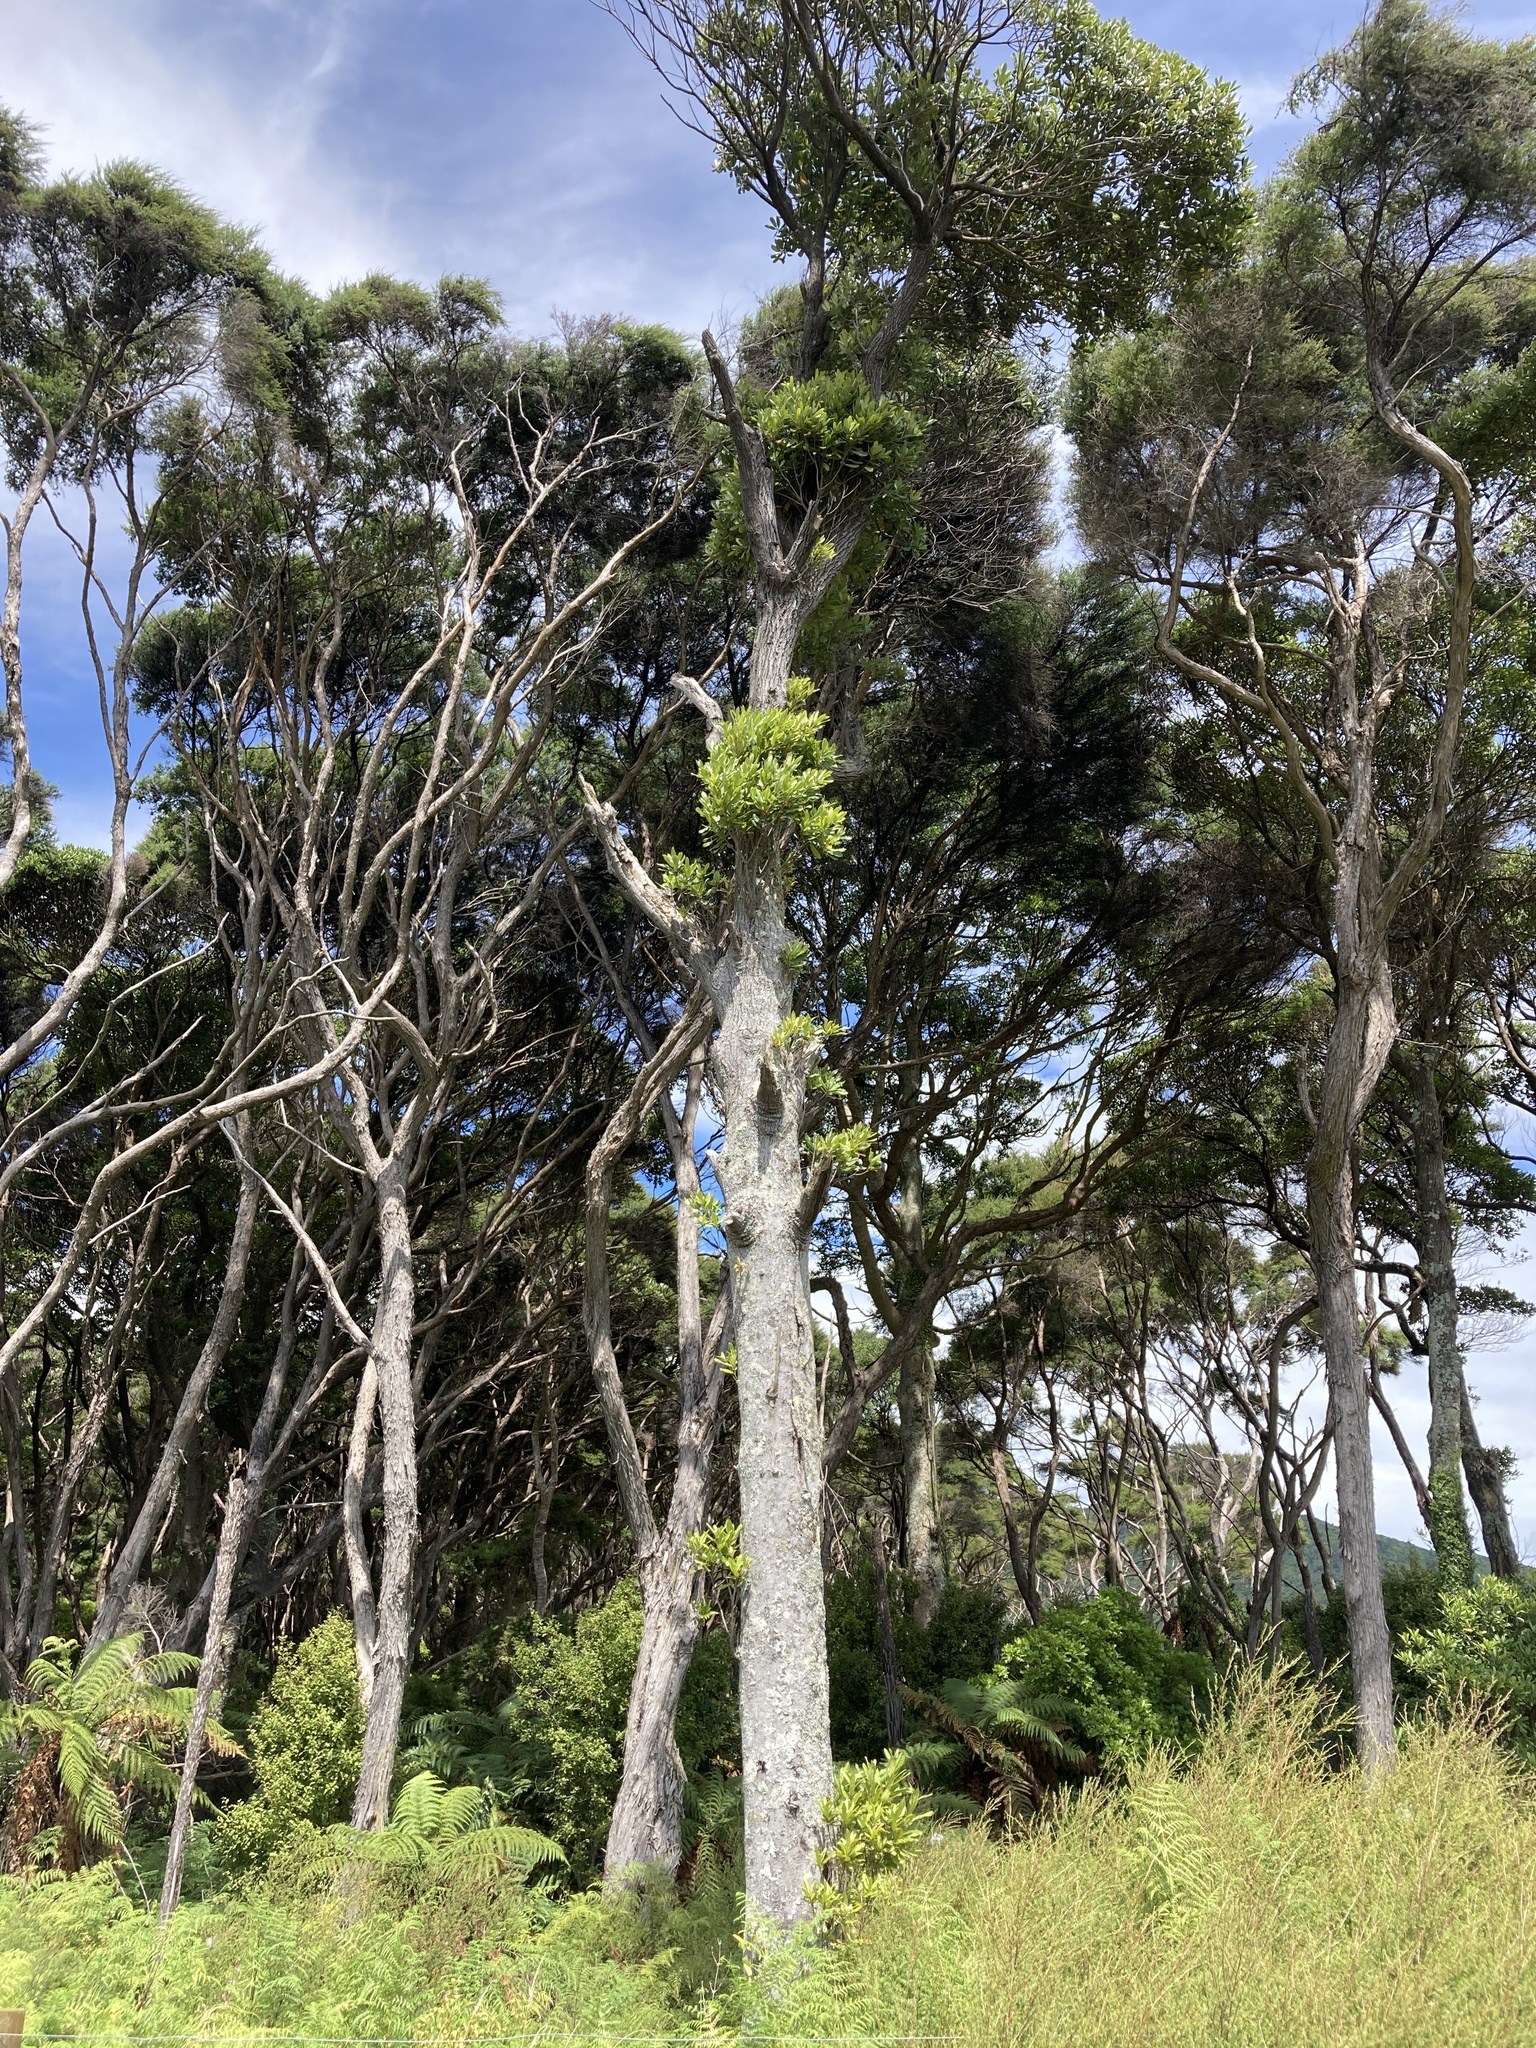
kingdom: Plantae
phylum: Tracheophyta
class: Magnoliopsida
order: Oxalidales
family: Elaeocarpaceae
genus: Elaeocarpus
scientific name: Elaeocarpus dentatus
